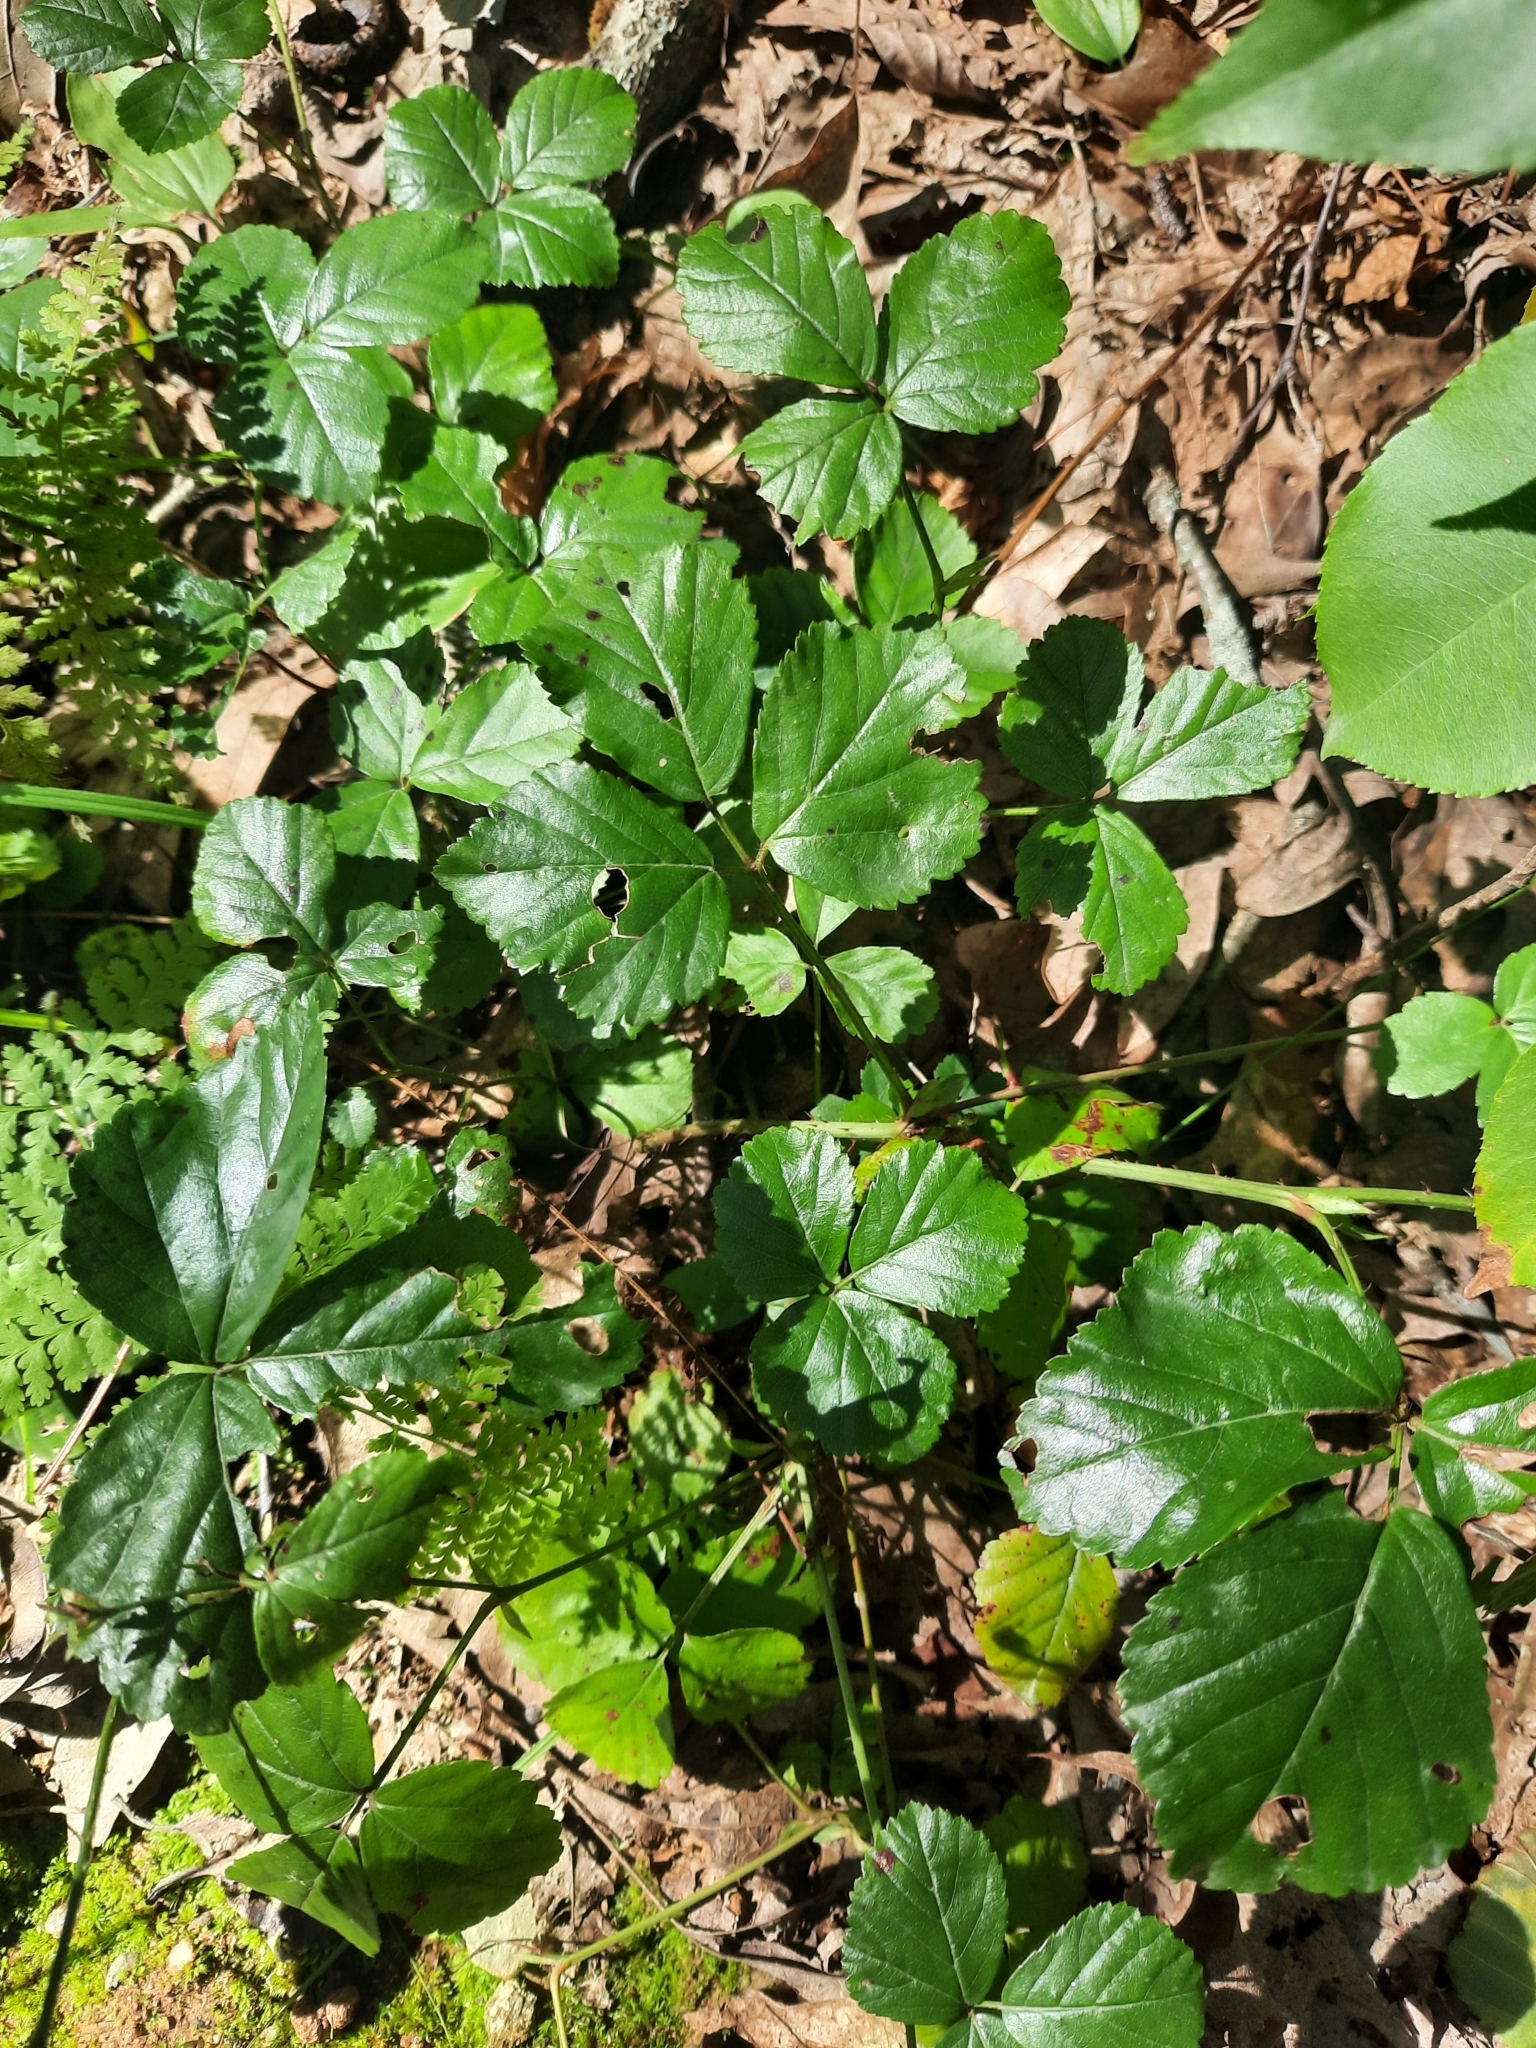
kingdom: Plantae
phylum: Tracheophyta
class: Magnoliopsida
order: Rosales
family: Rosaceae
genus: Rubus
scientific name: Rubus hispidus
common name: Running blackberry
